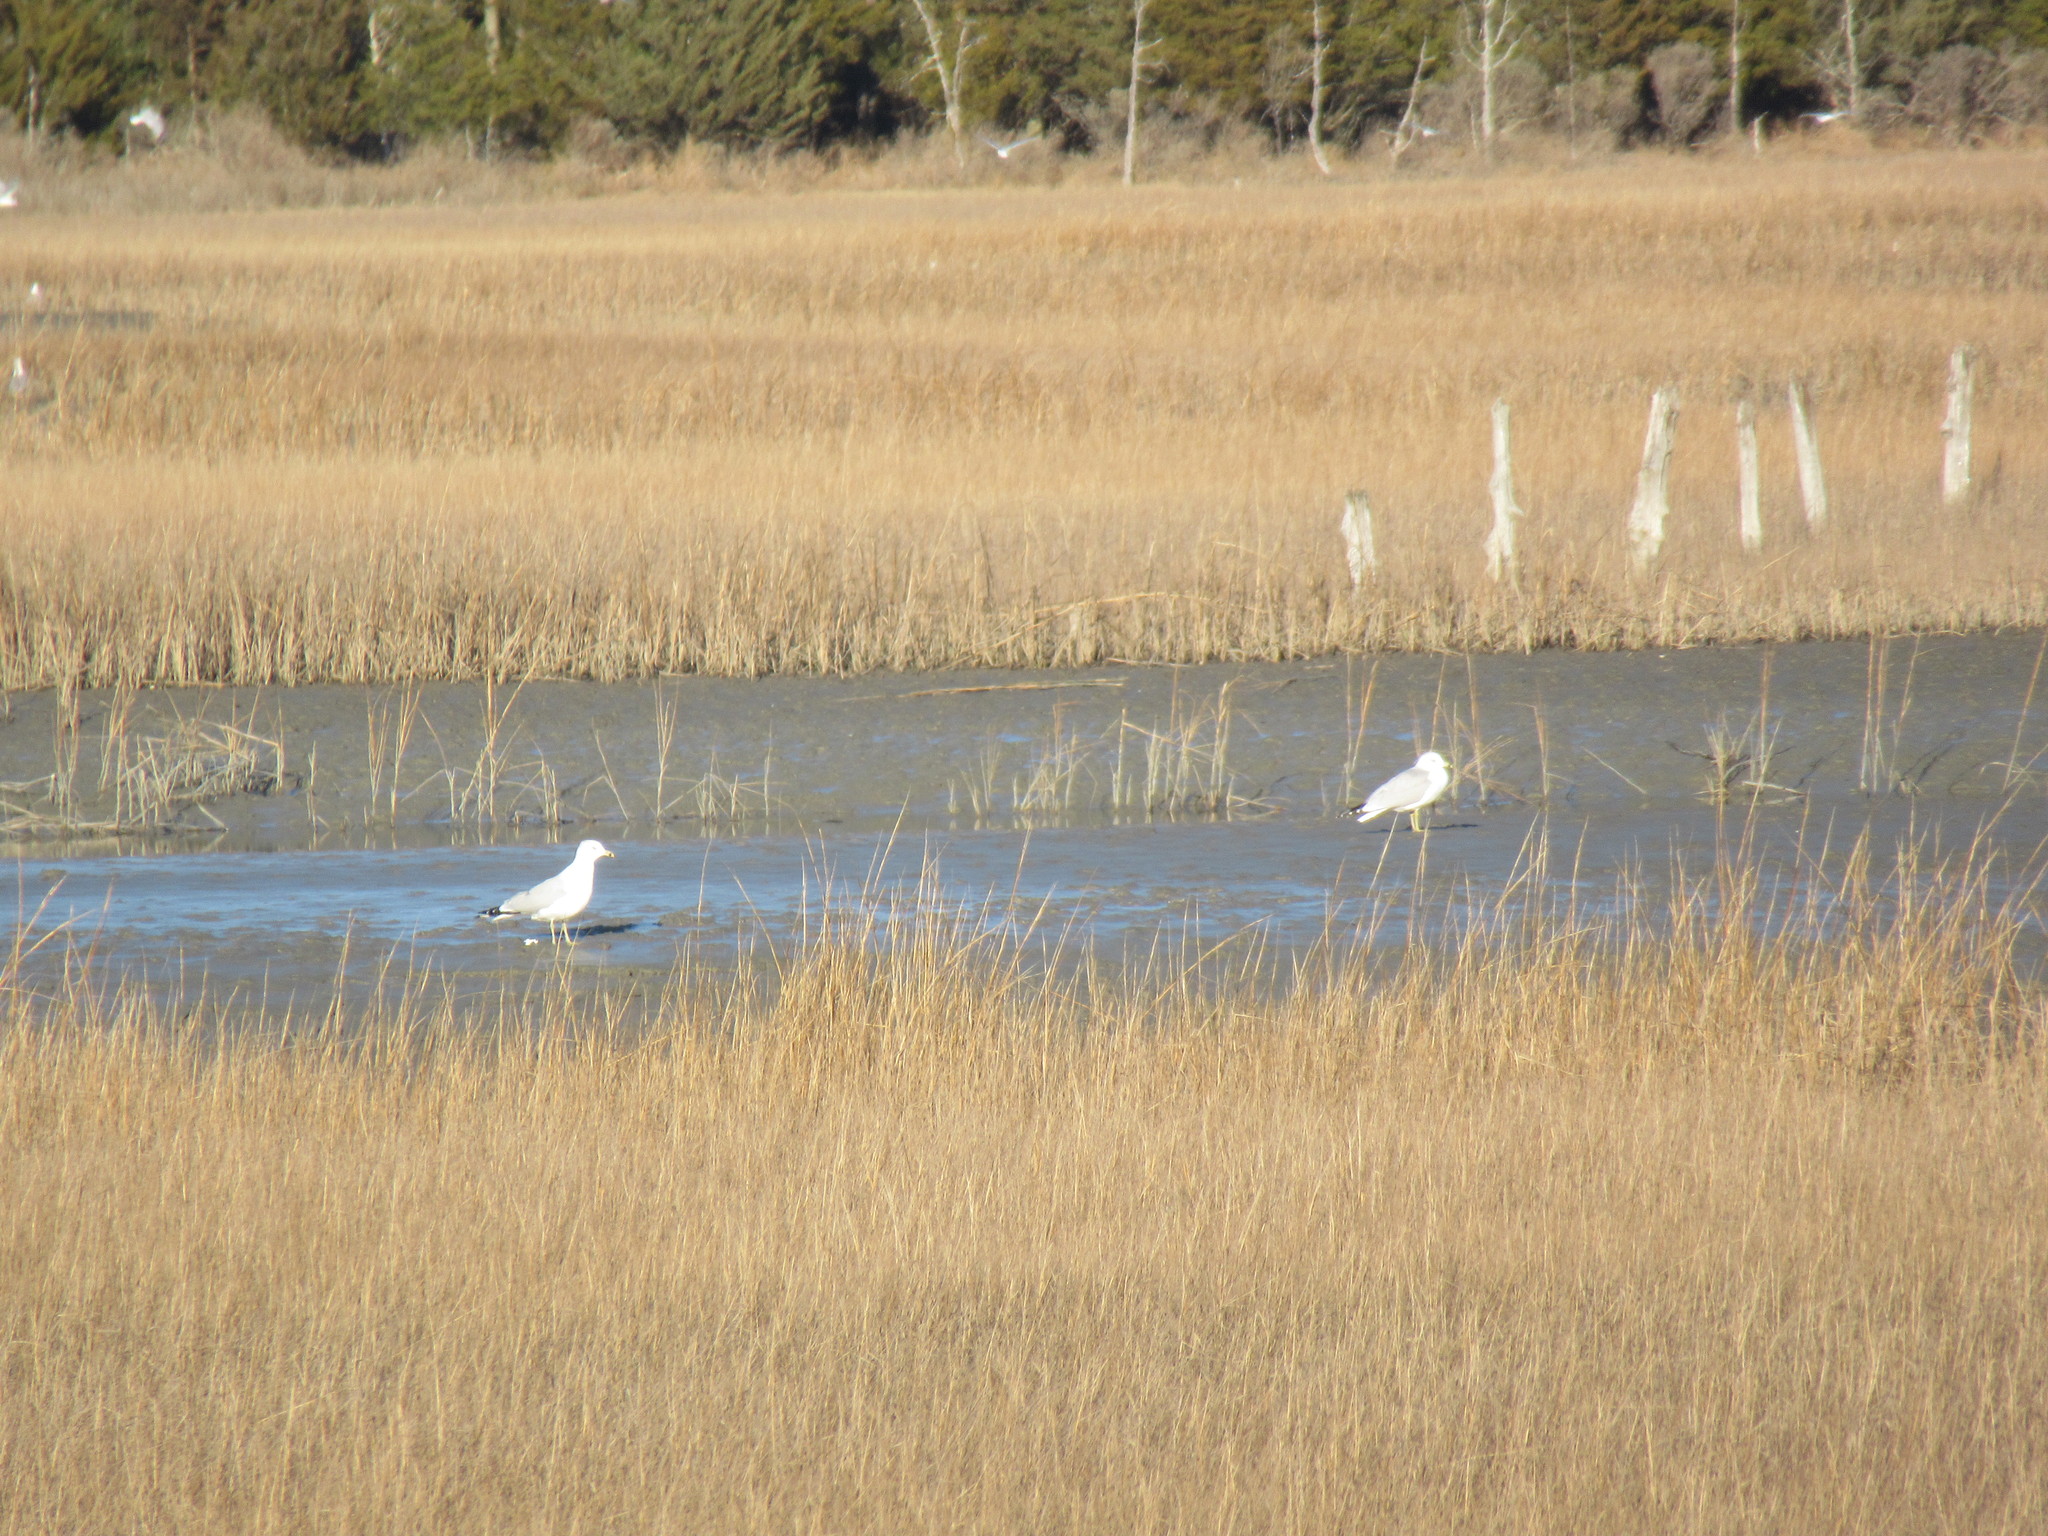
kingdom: Animalia
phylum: Chordata
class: Aves
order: Charadriiformes
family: Laridae
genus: Larus
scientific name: Larus delawarensis
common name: Ring-billed gull
